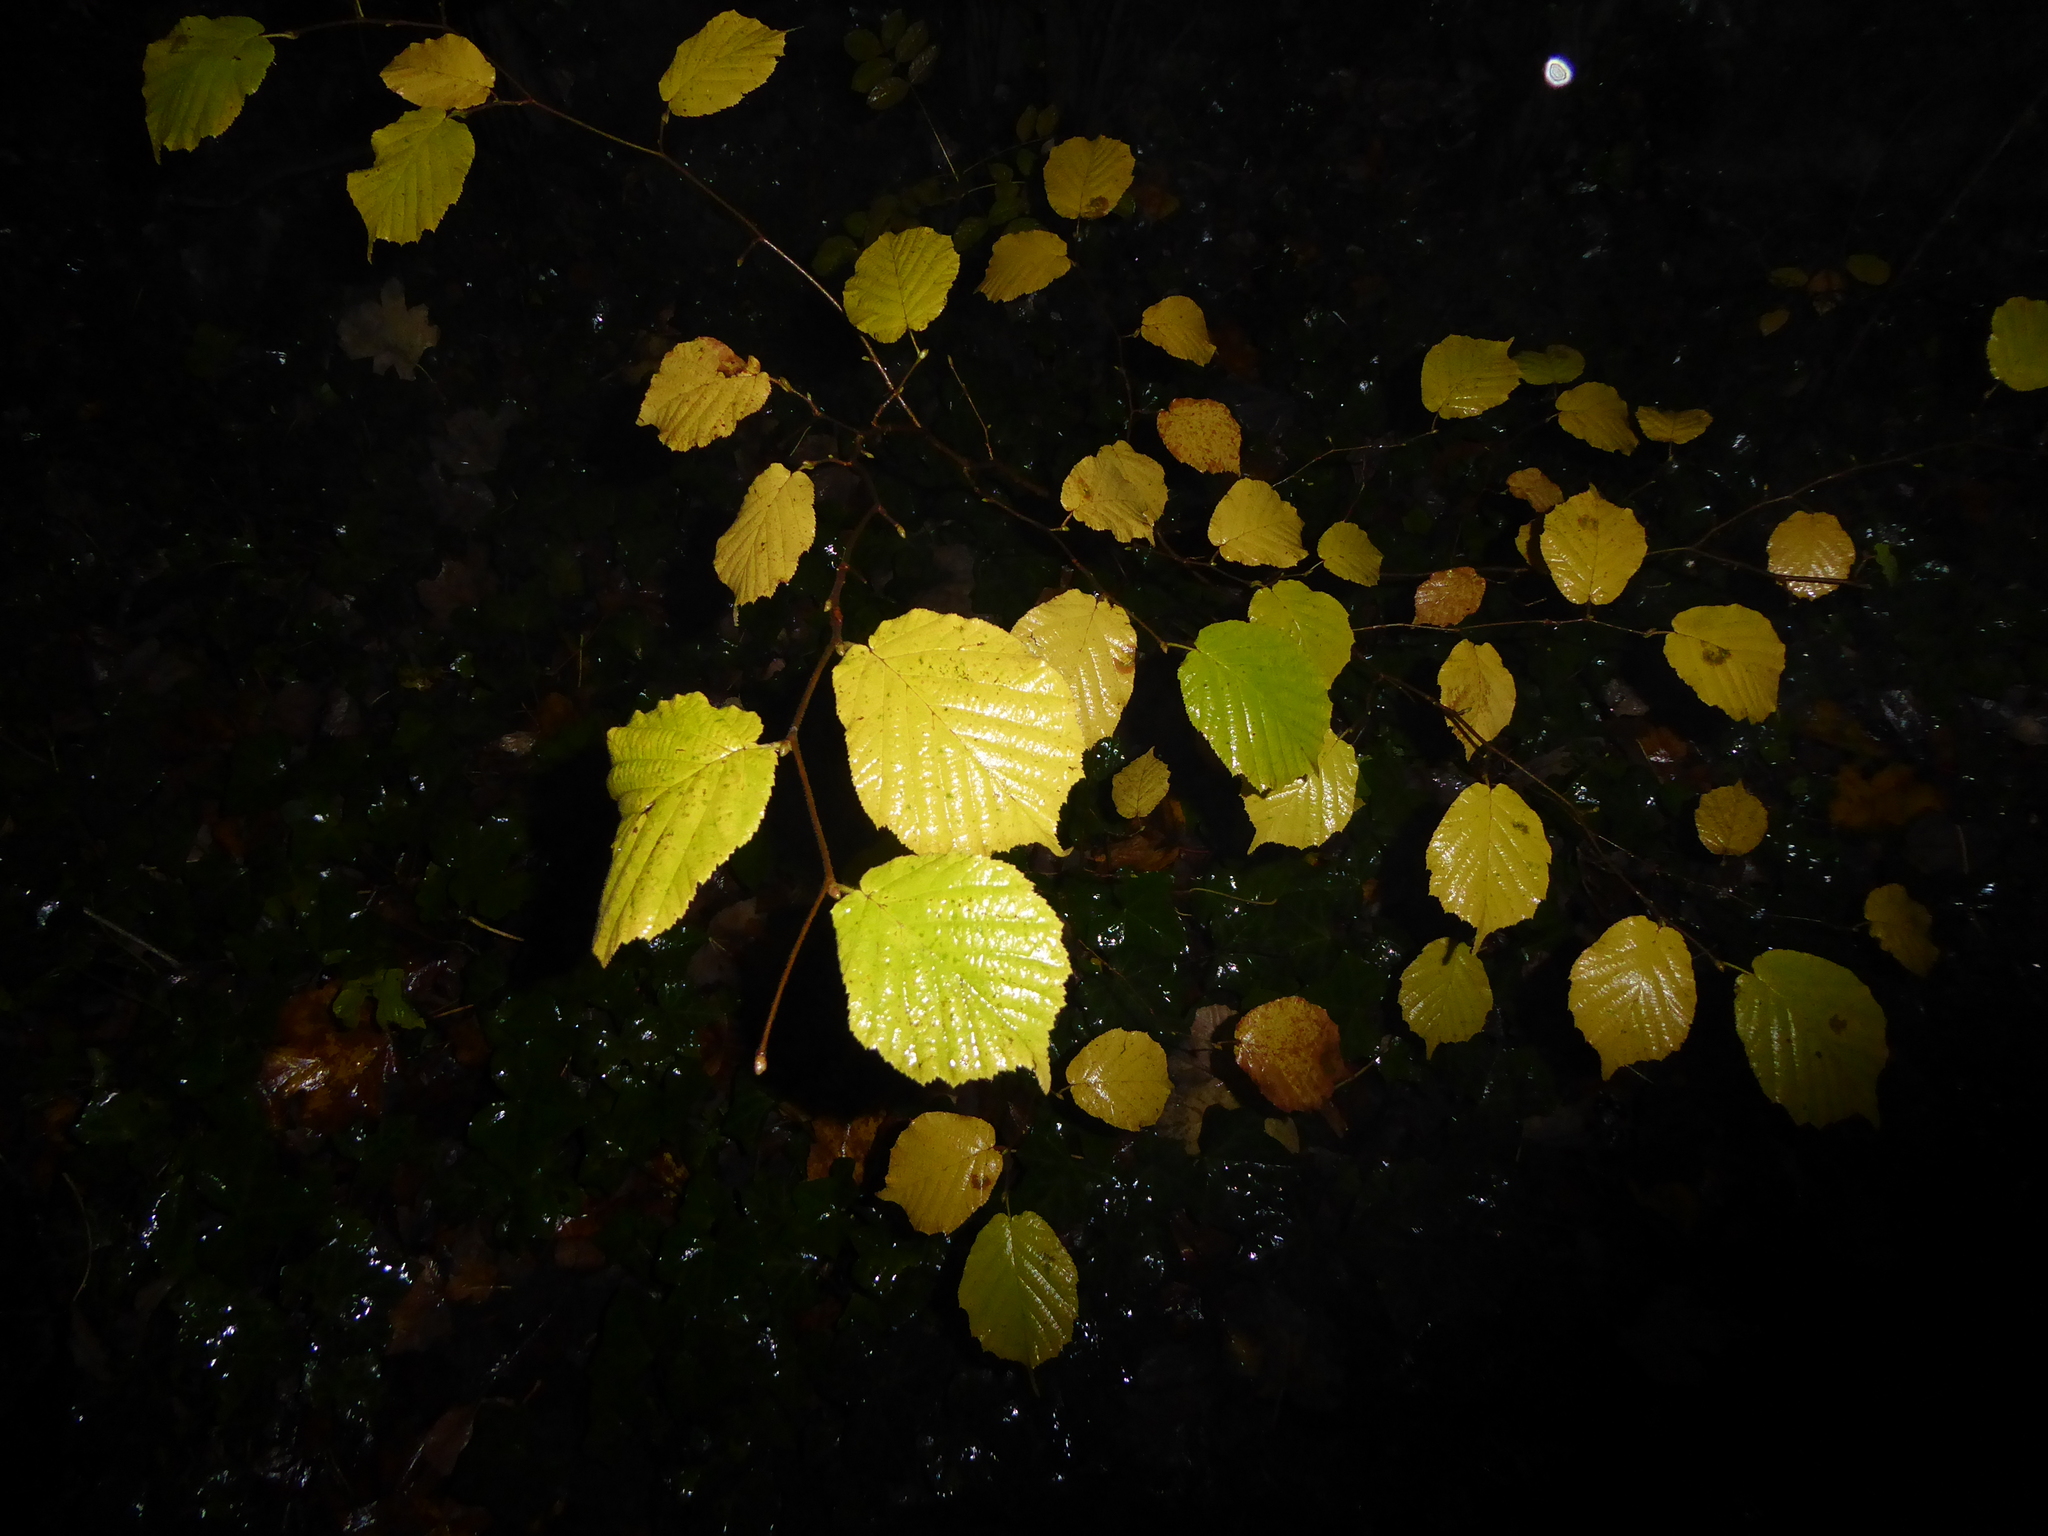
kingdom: Plantae
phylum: Tracheophyta
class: Magnoliopsida
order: Fagales
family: Betulaceae
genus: Corylus
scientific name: Corylus avellana
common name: European hazel
